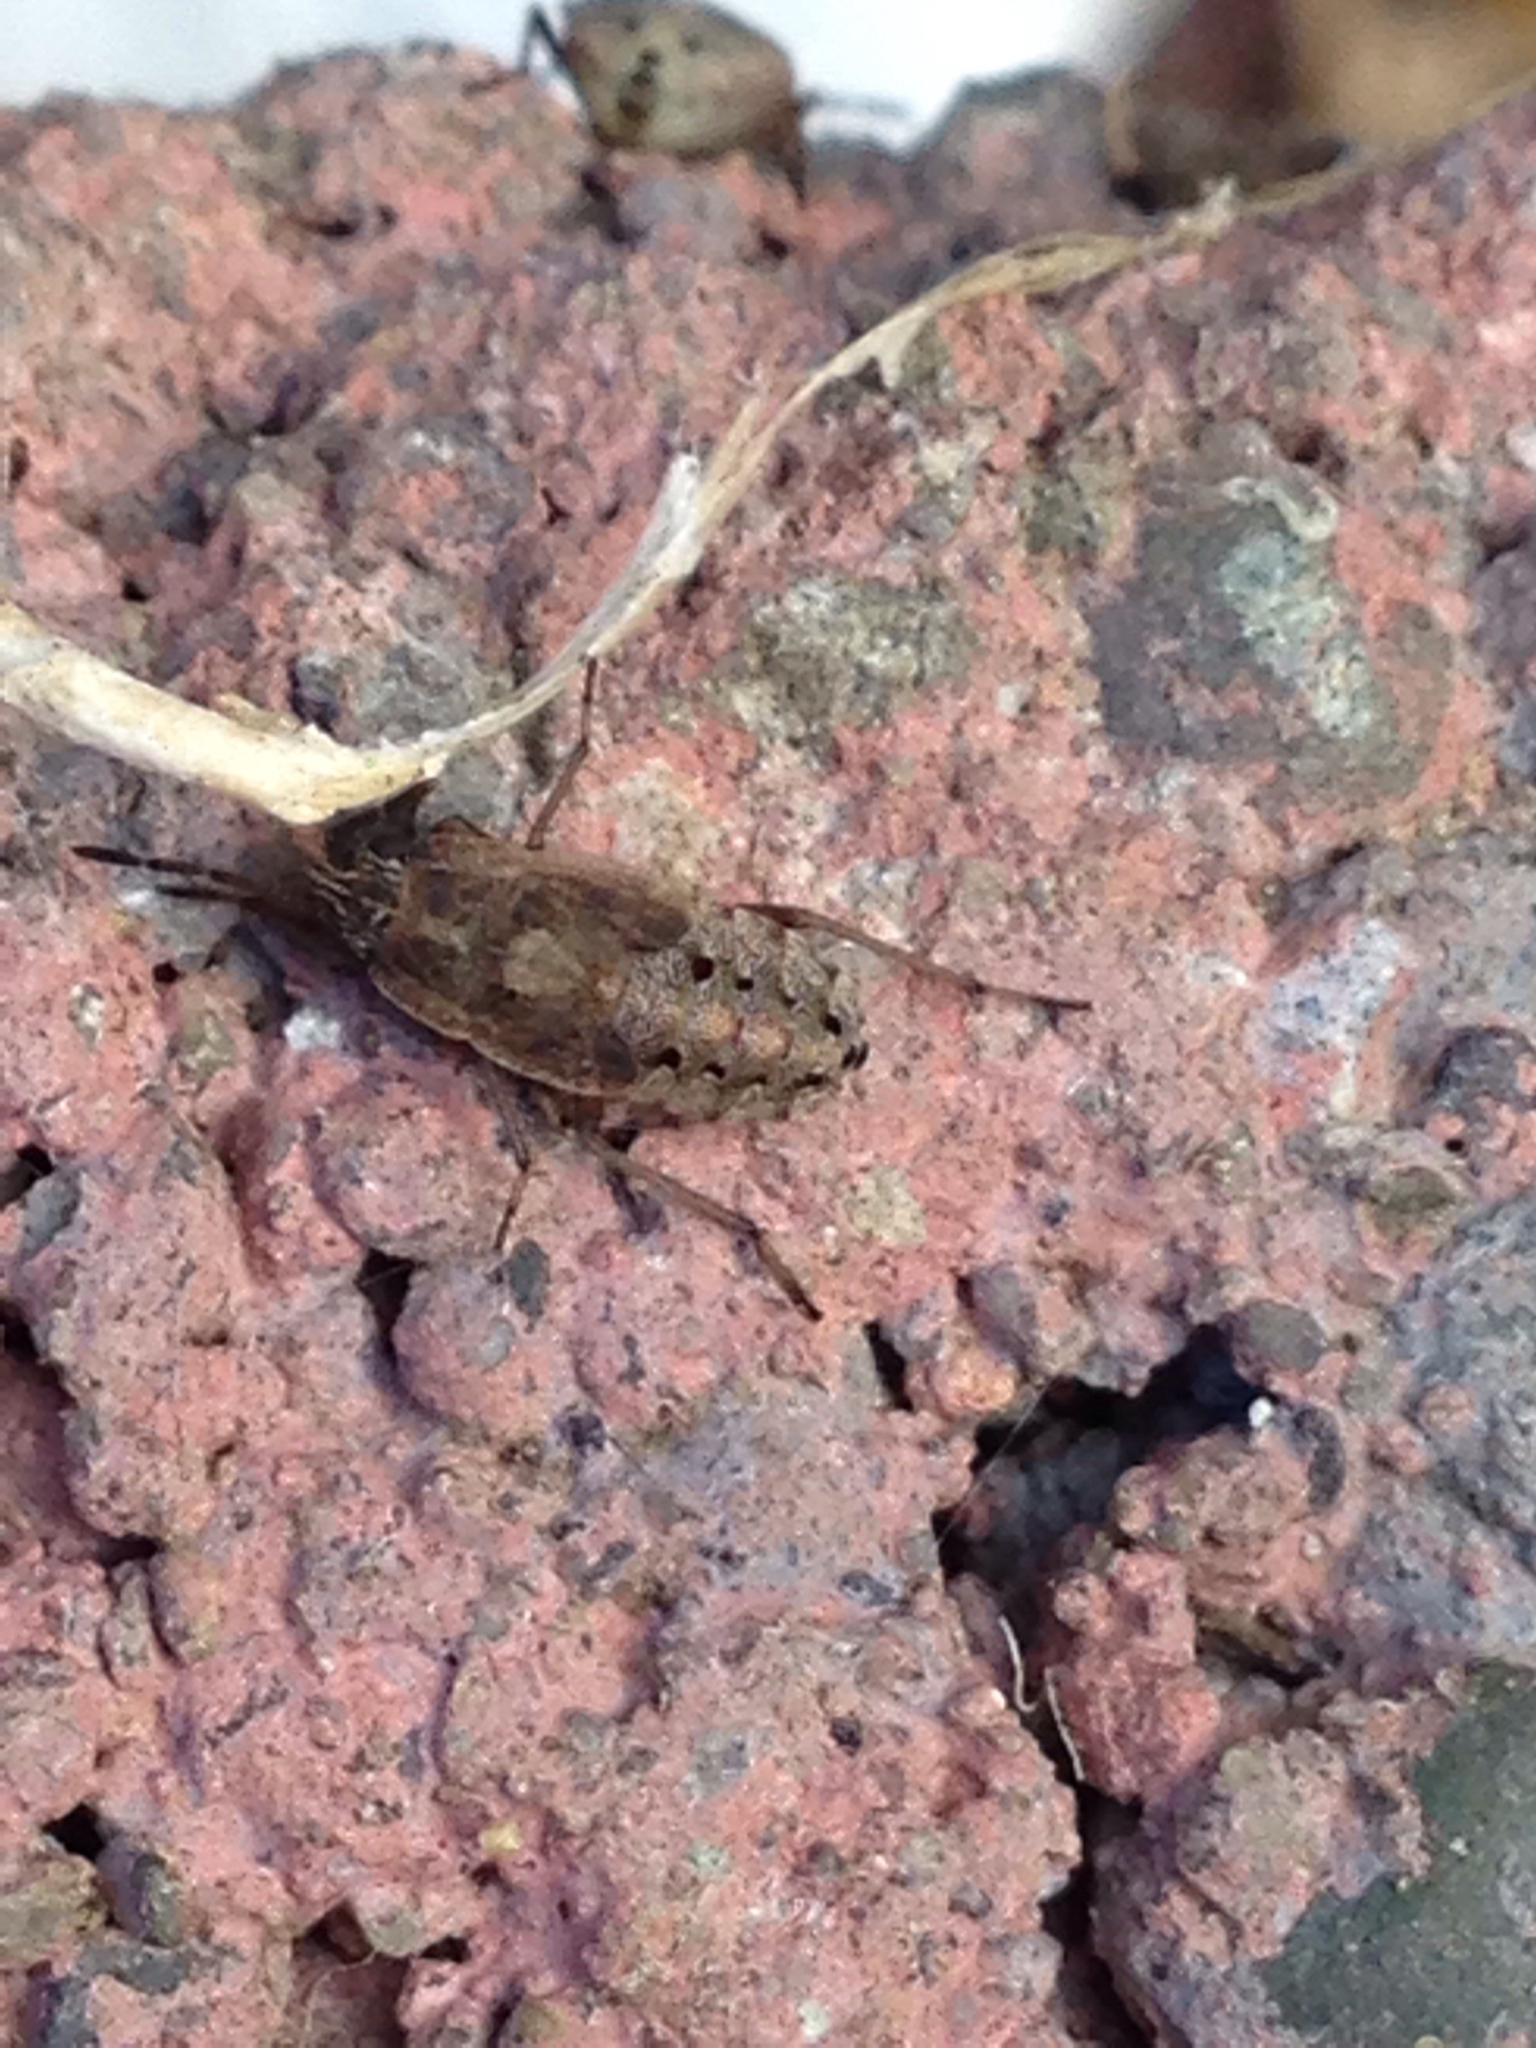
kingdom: Animalia
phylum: Arthropoda
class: Insecta
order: Hemiptera
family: Rhyparochromidae
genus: Emblethis
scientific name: Emblethis vicarius
